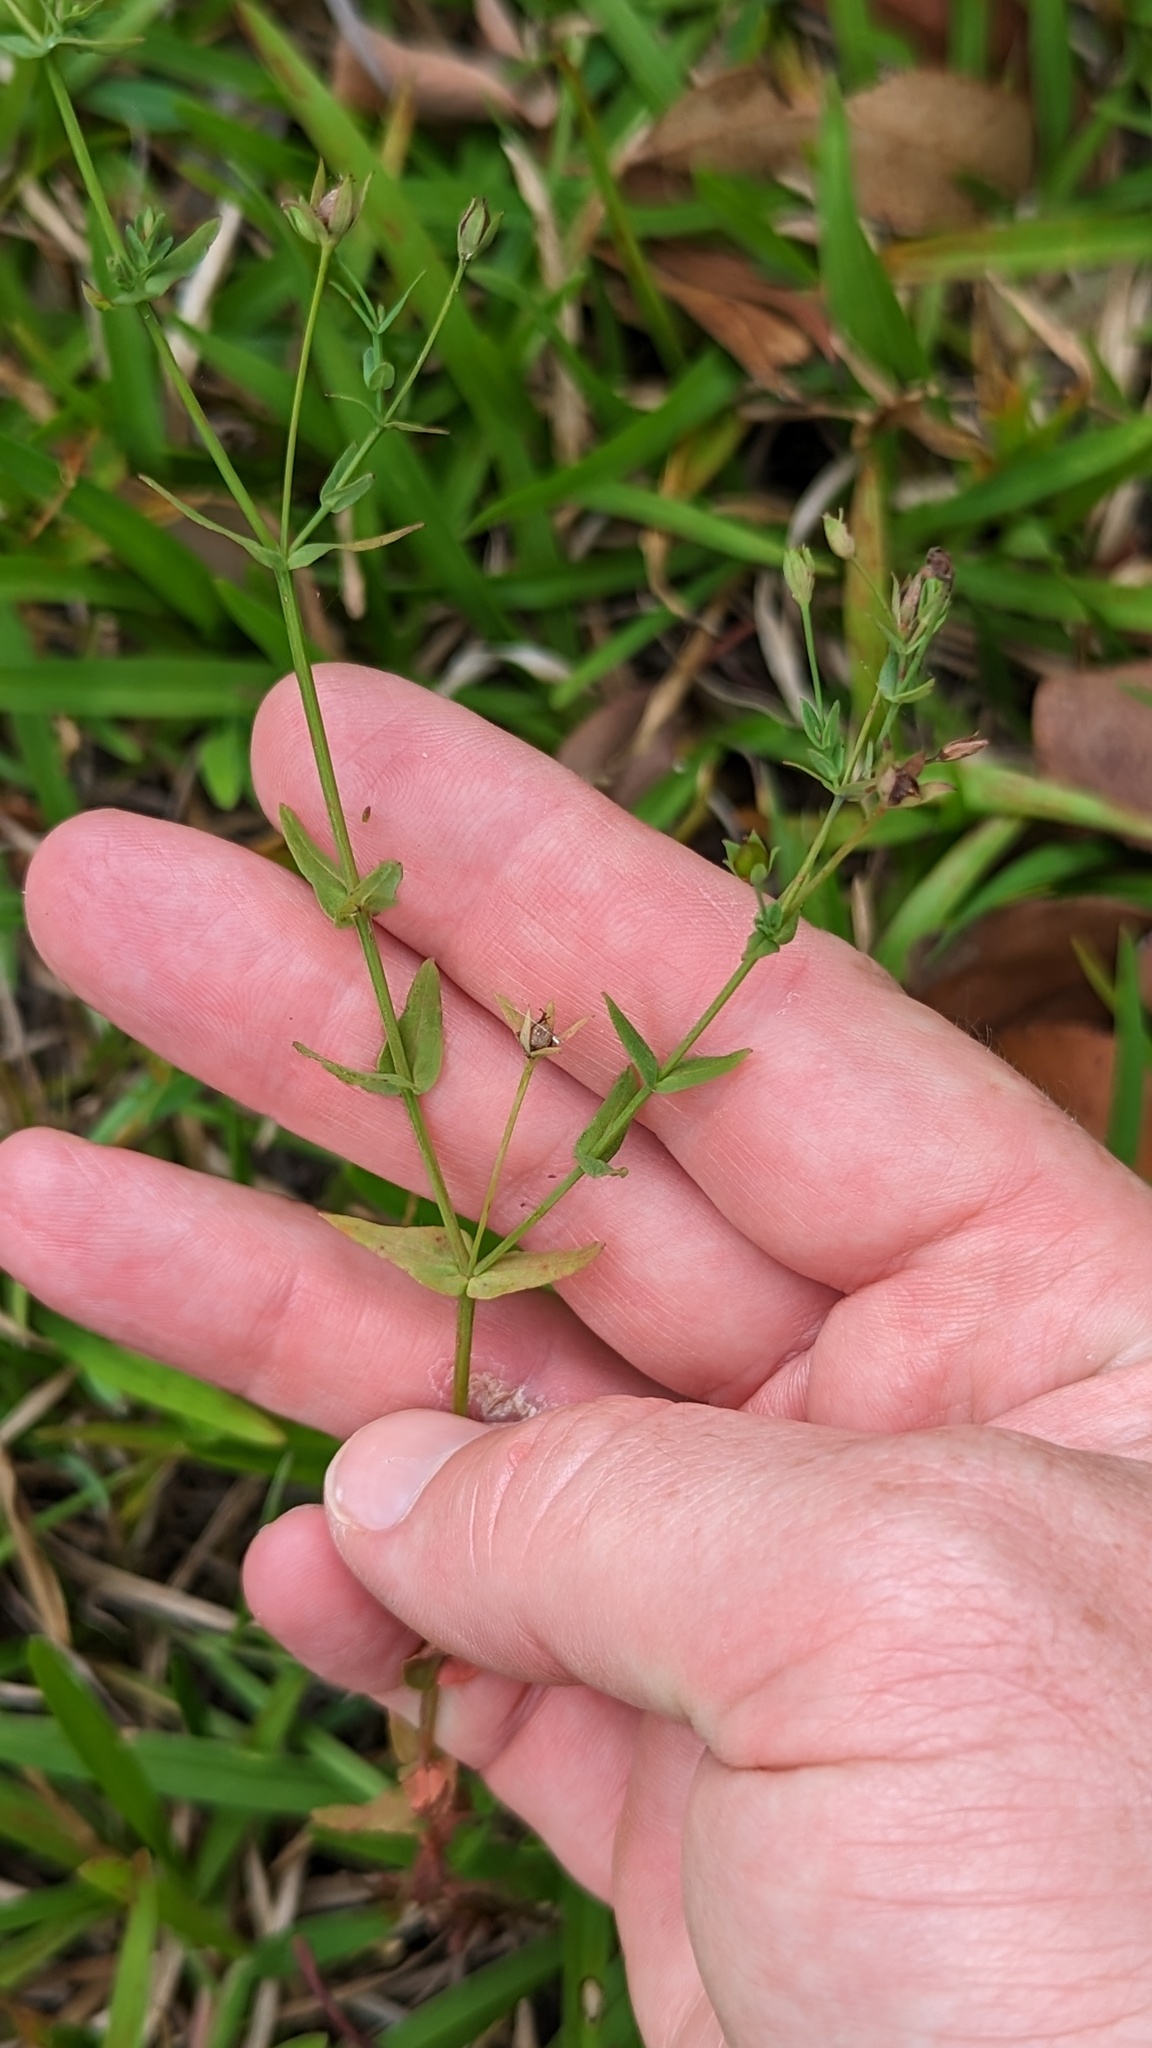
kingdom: Plantae
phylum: Tracheophyta
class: Magnoliopsida
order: Malpighiales
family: Hypericaceae
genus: Hypericum
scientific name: Hypericum gramineum
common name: Grassy st. johnswort
